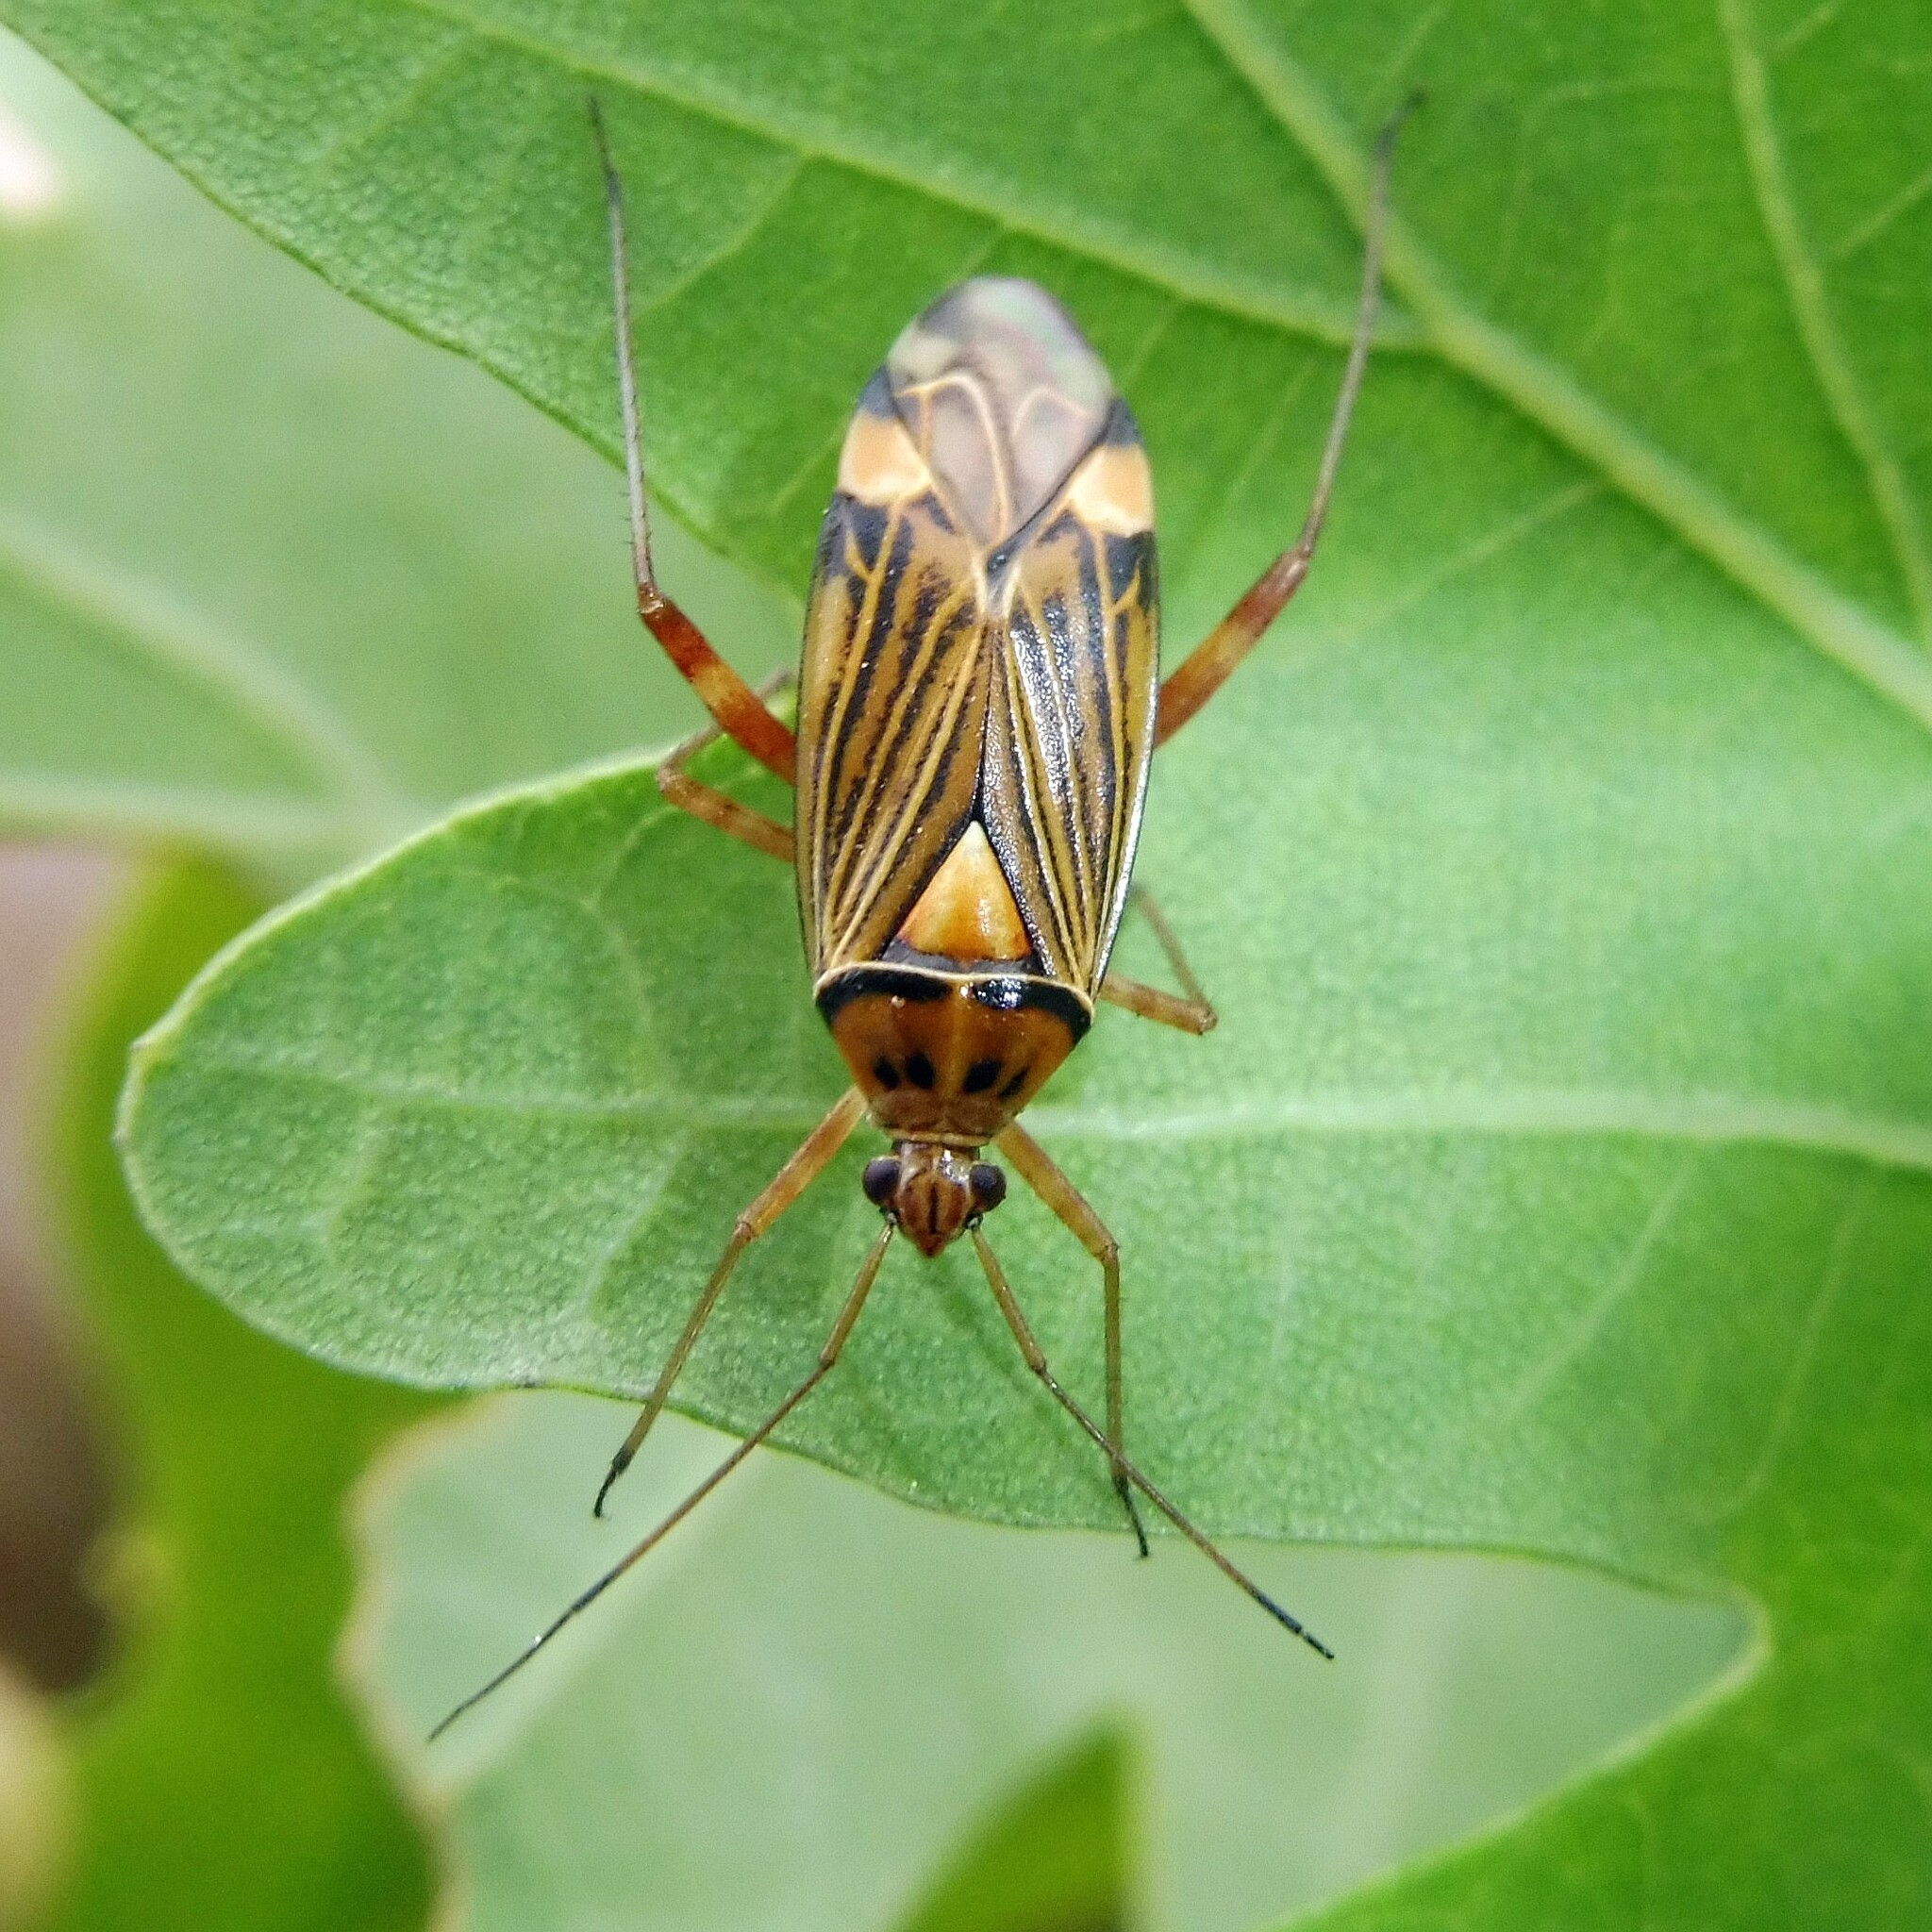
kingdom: Animalia
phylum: Arthropoda
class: Insecta
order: Hemiptera
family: Miridae
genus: Rhabdomiris
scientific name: Rhabdomiris striatellus
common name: Plant bug
